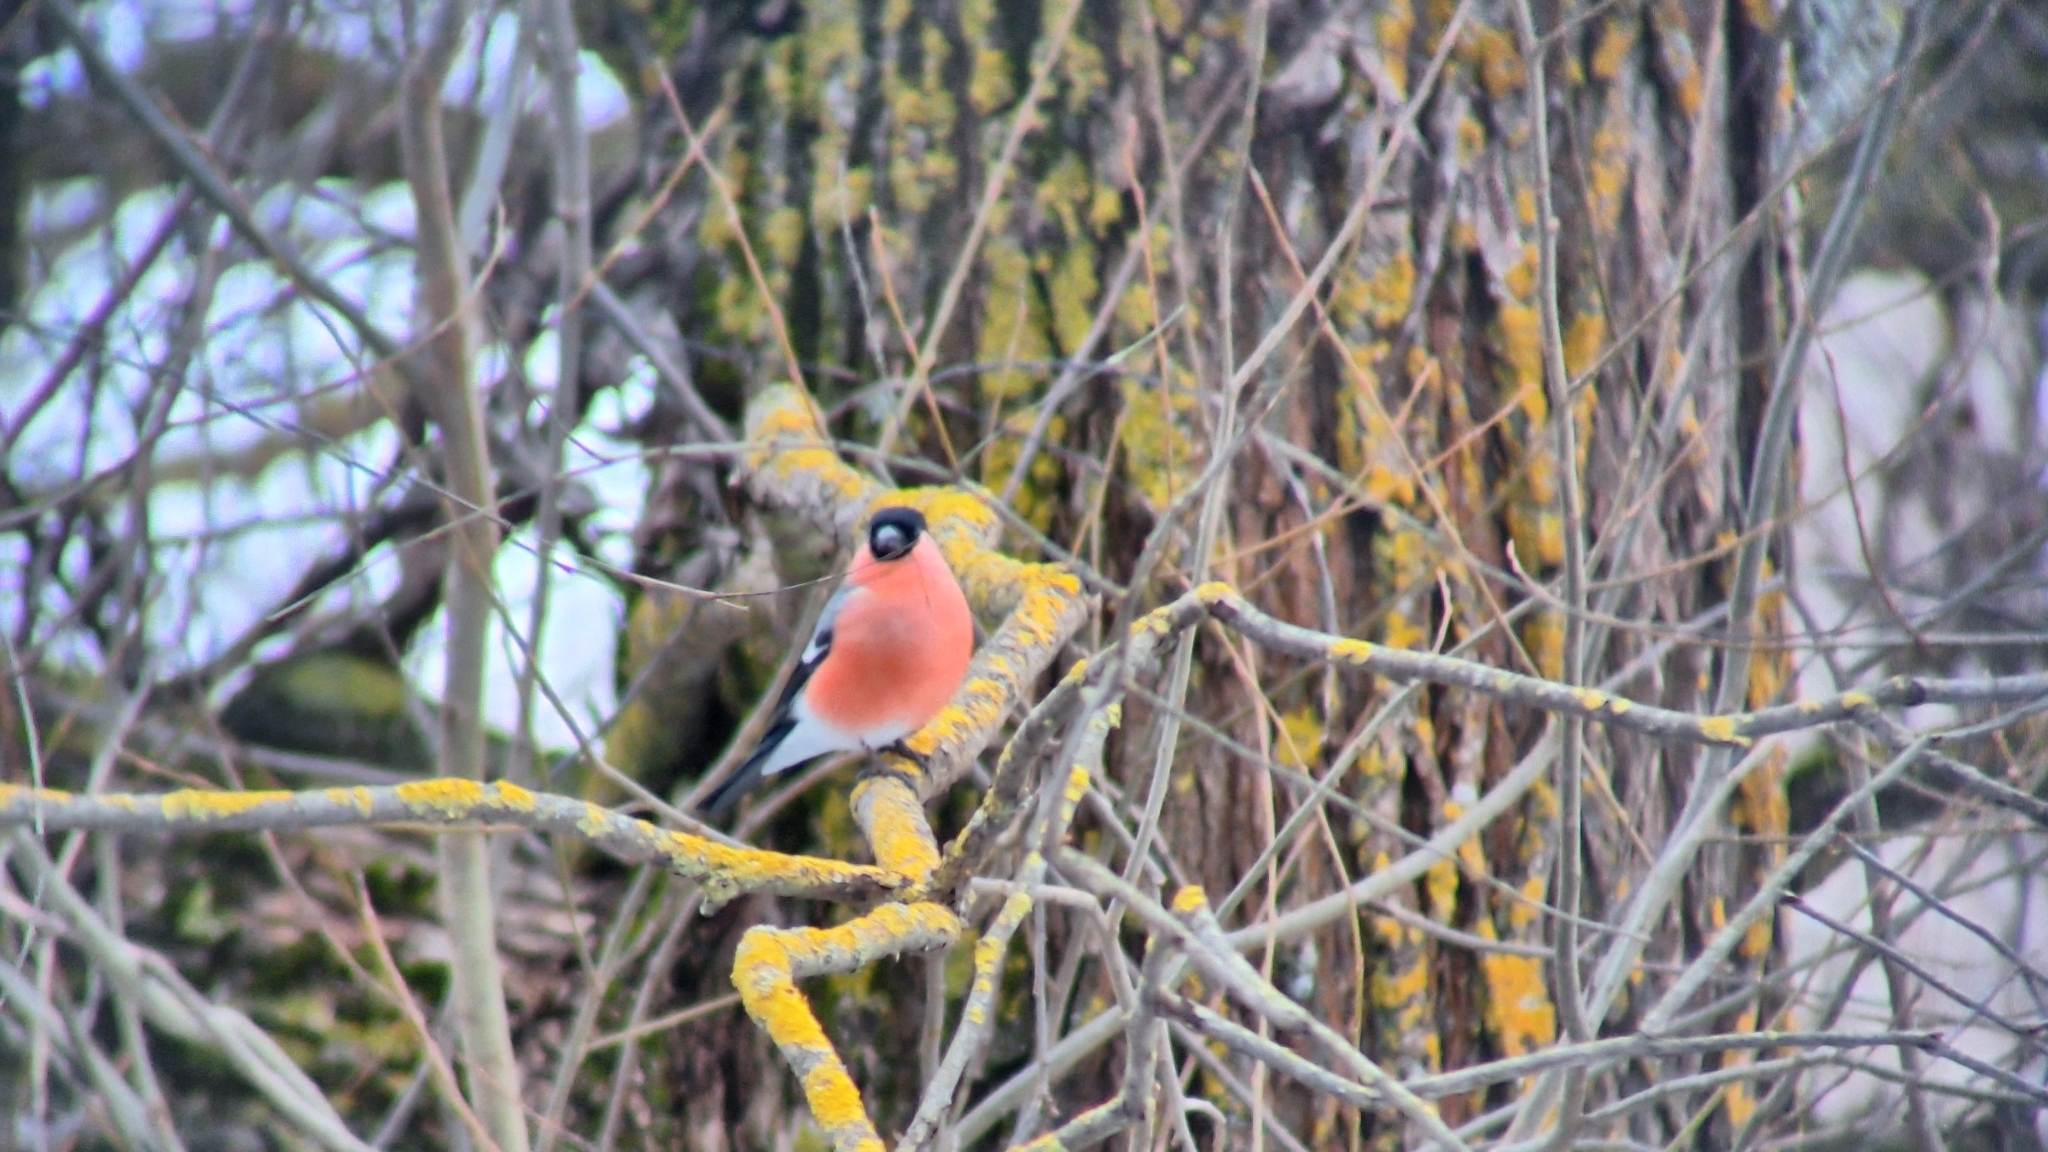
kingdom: Animalia
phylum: Chordata
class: Aves
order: Passeriformes
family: Fringillidae
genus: Pyrrhula
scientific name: Pyrrhula pyrrhula
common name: Eurasian bullfinch
